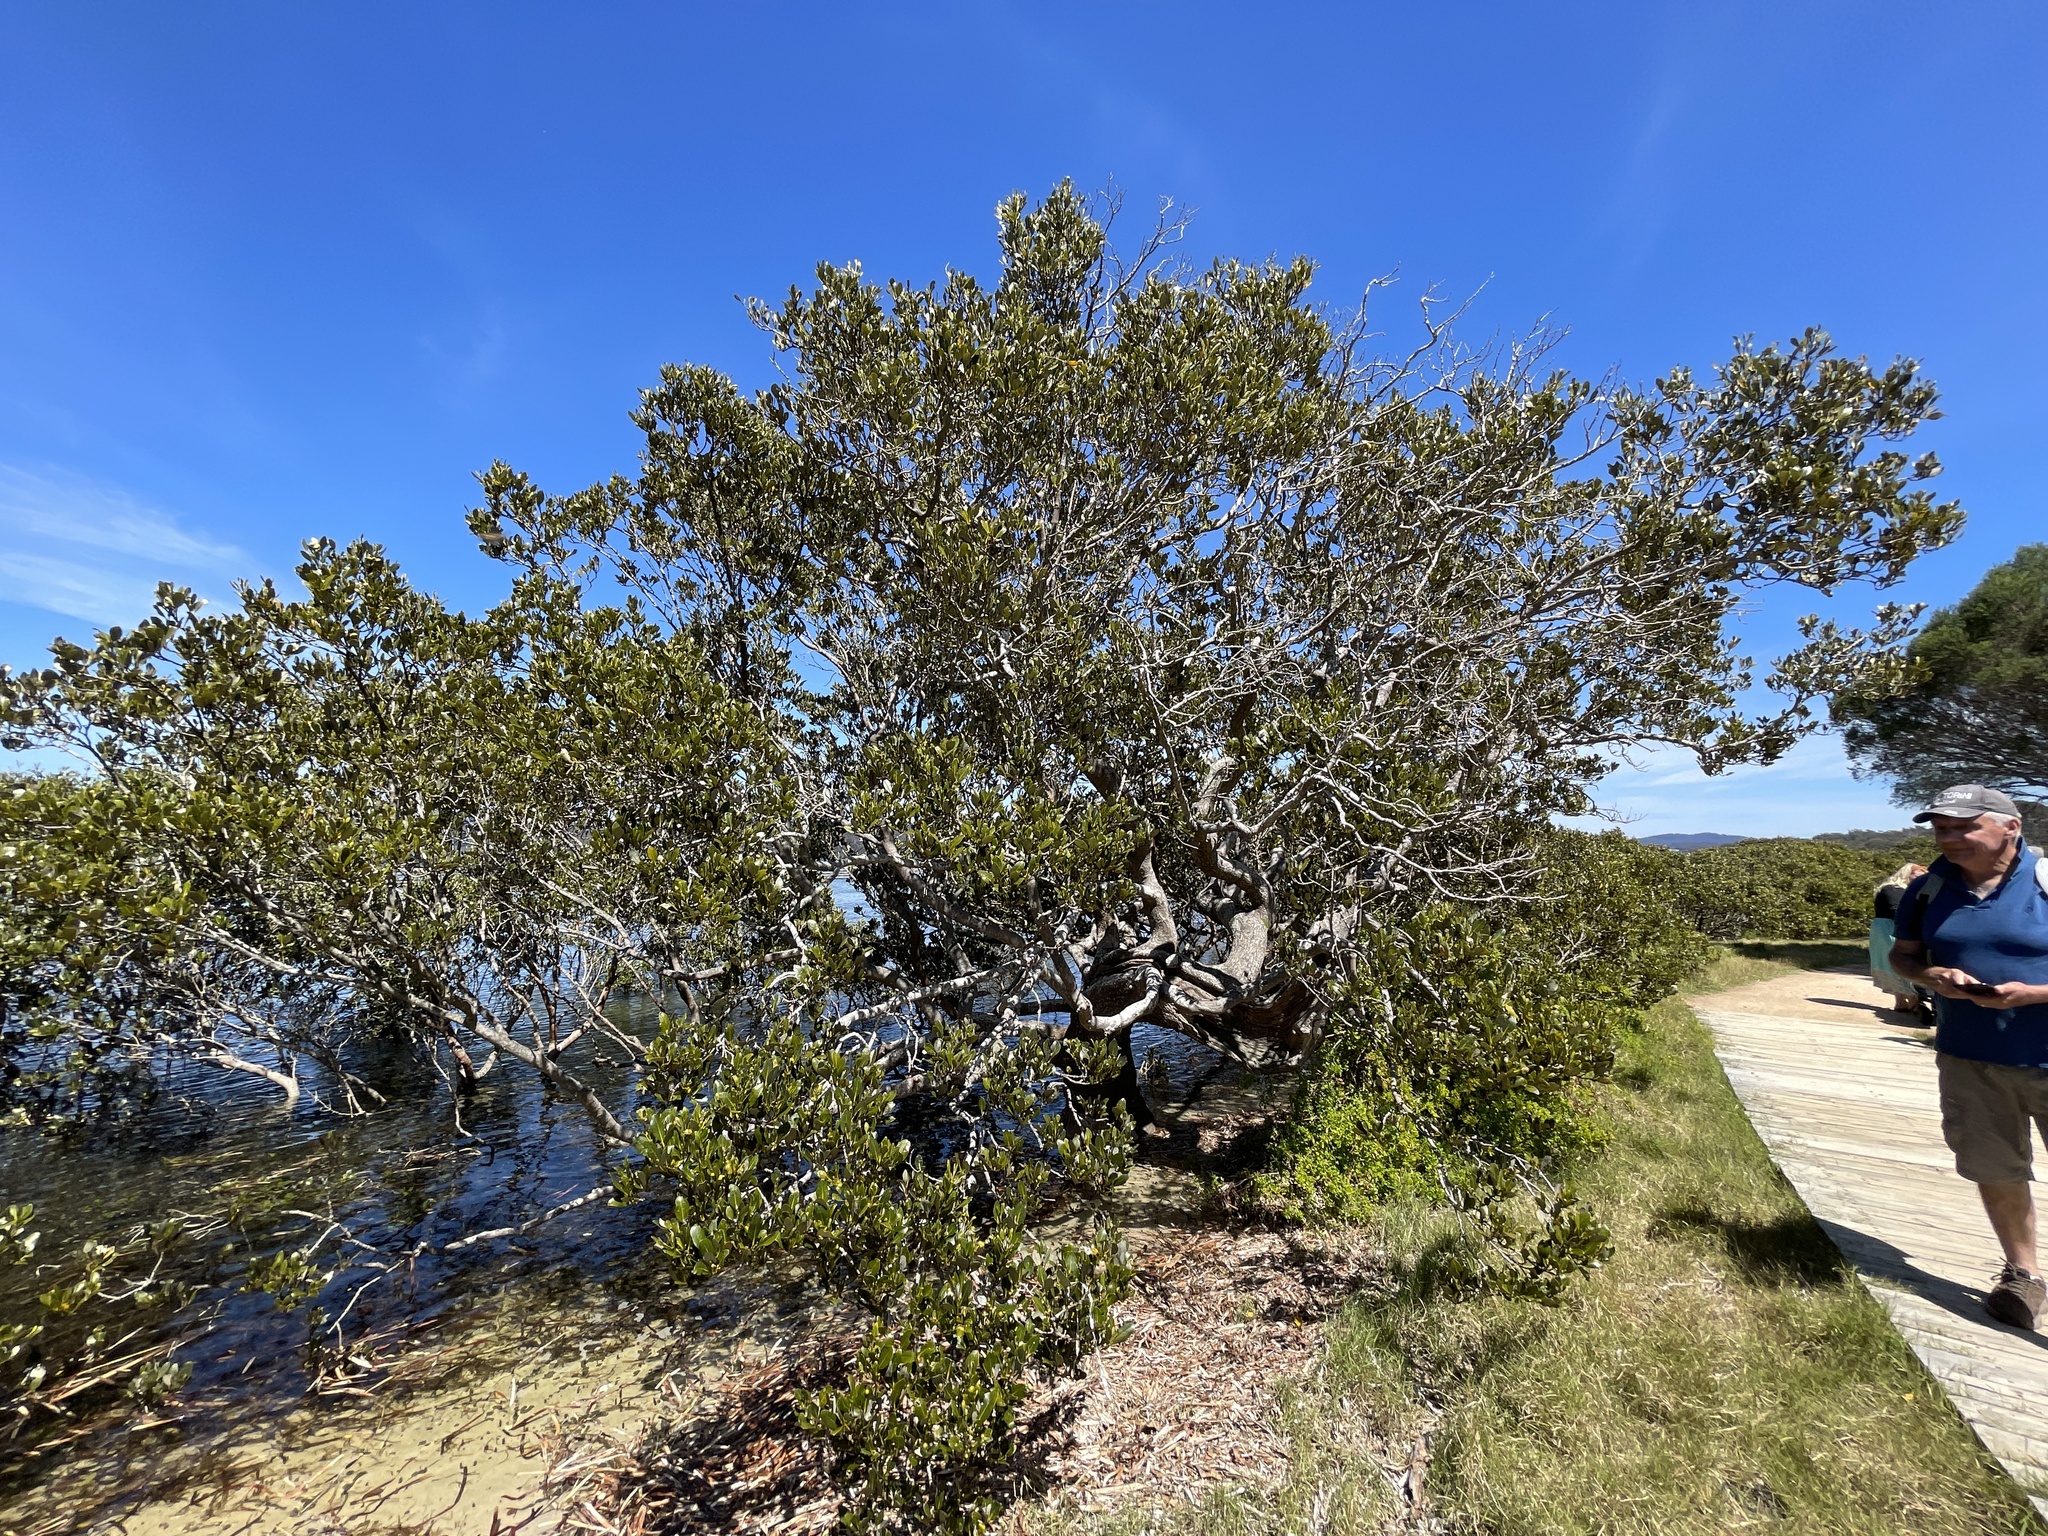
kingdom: Plantae
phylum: Tracheophyta
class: Magnoliopsida
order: Lamiales
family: Acanthaceae
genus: Avicennia
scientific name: Avicennia marina
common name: Gray mangrove
